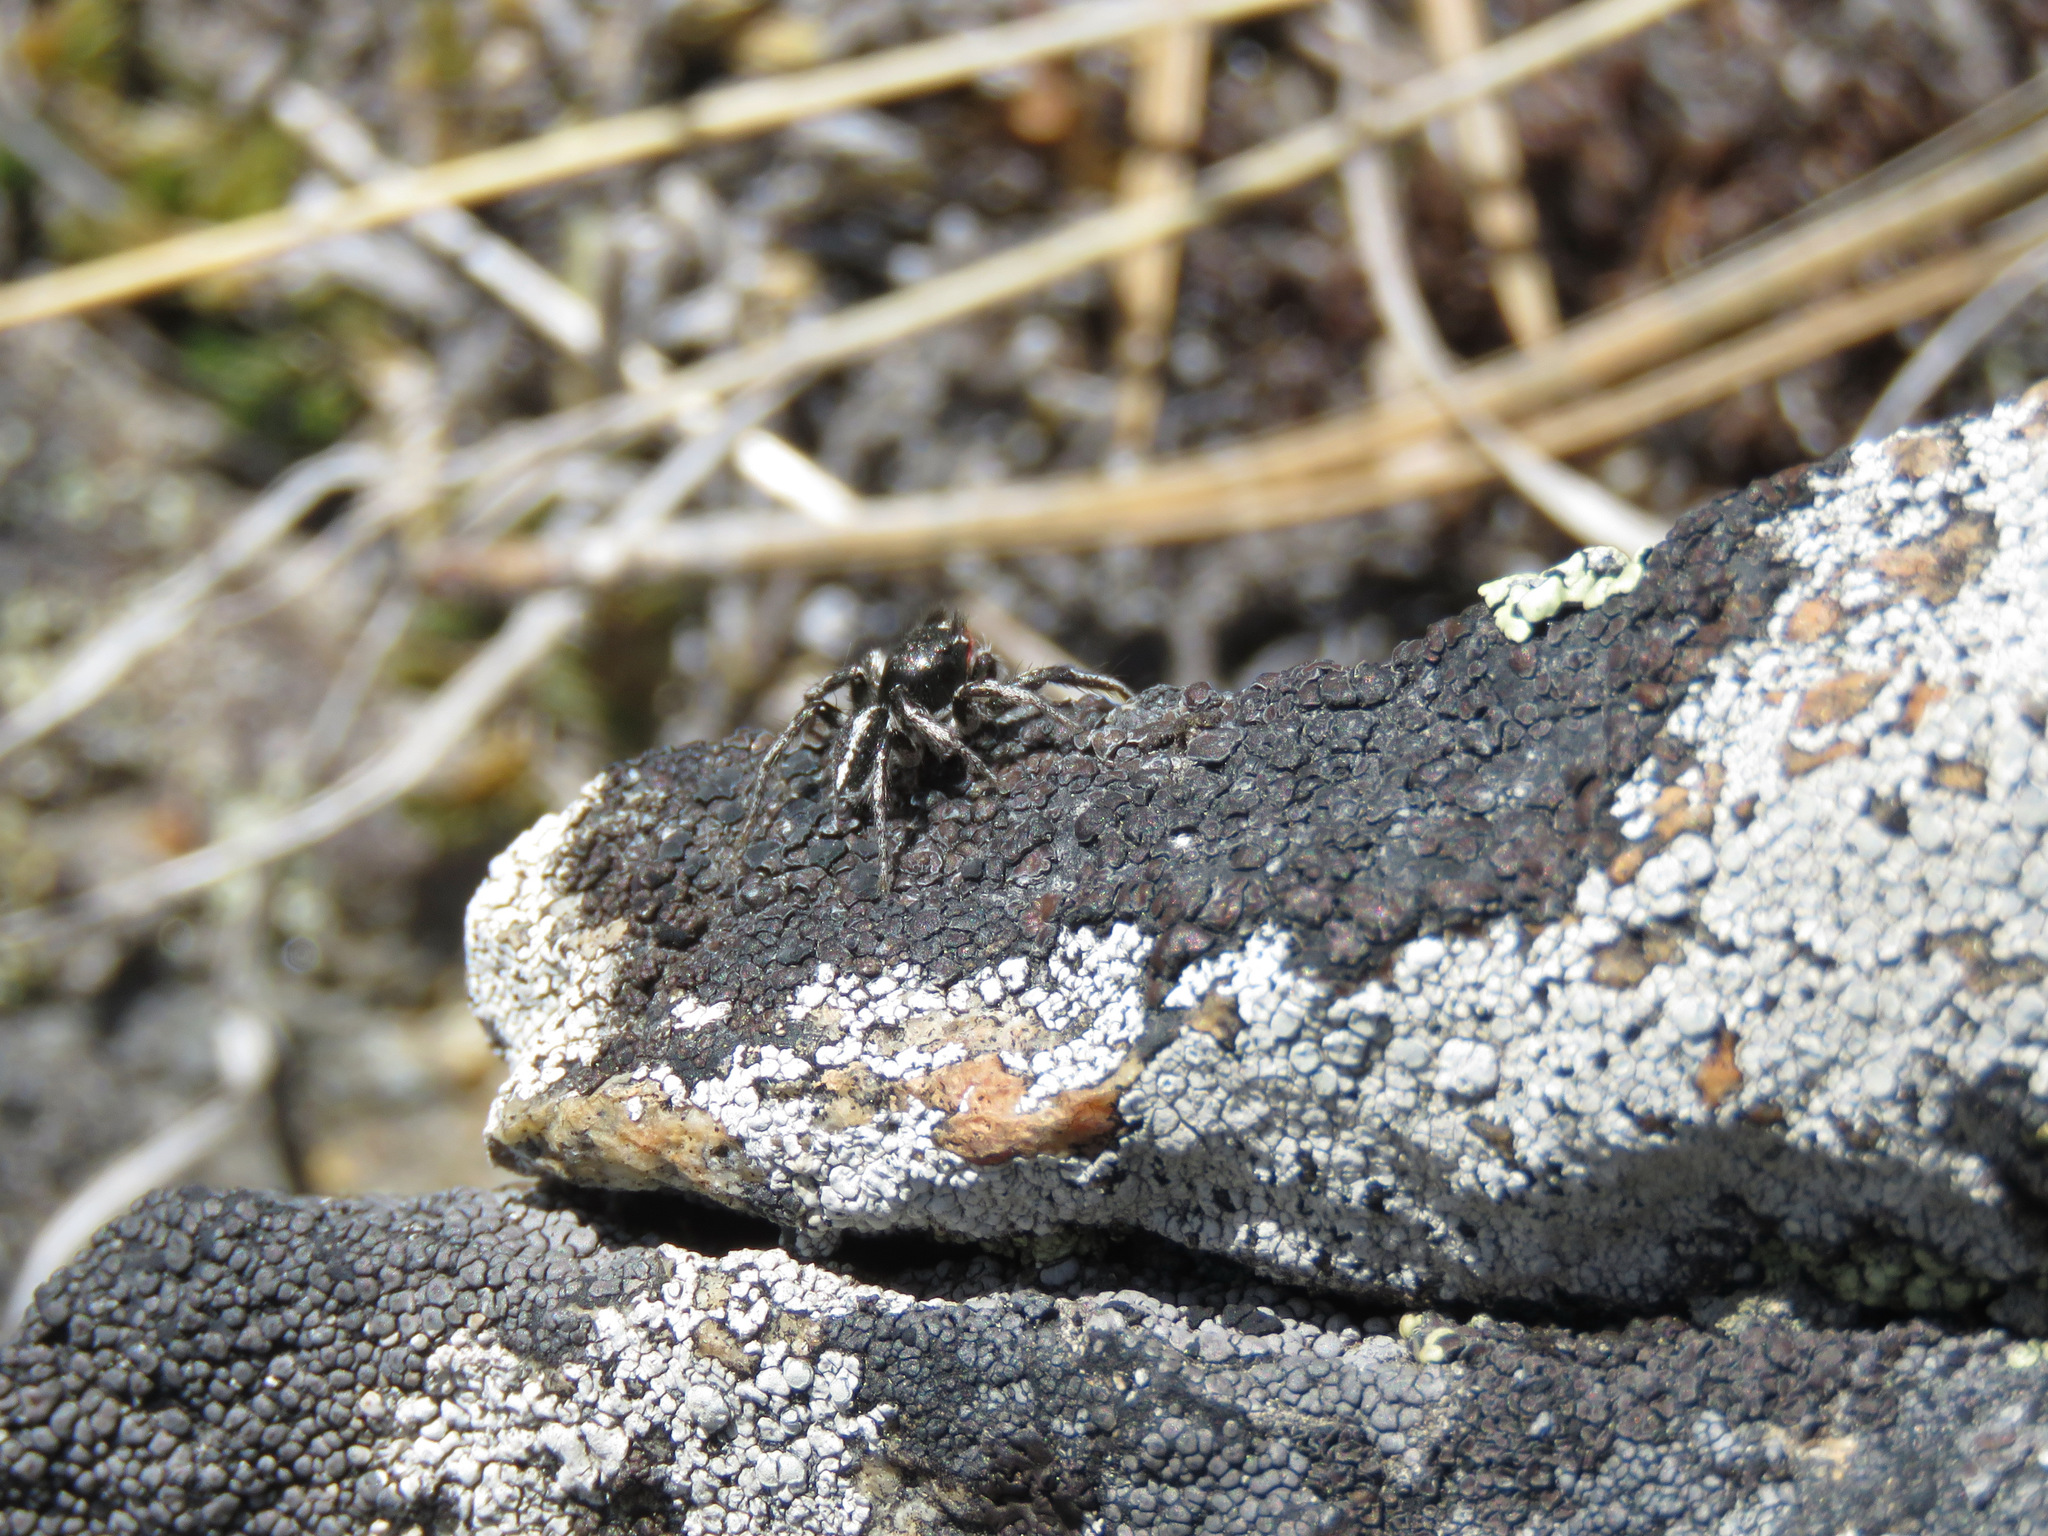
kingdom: Animalia
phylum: Arthropoda
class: Arachnida
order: Araneae
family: Salticidae
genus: Habronattus
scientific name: Habronattus sansoni
